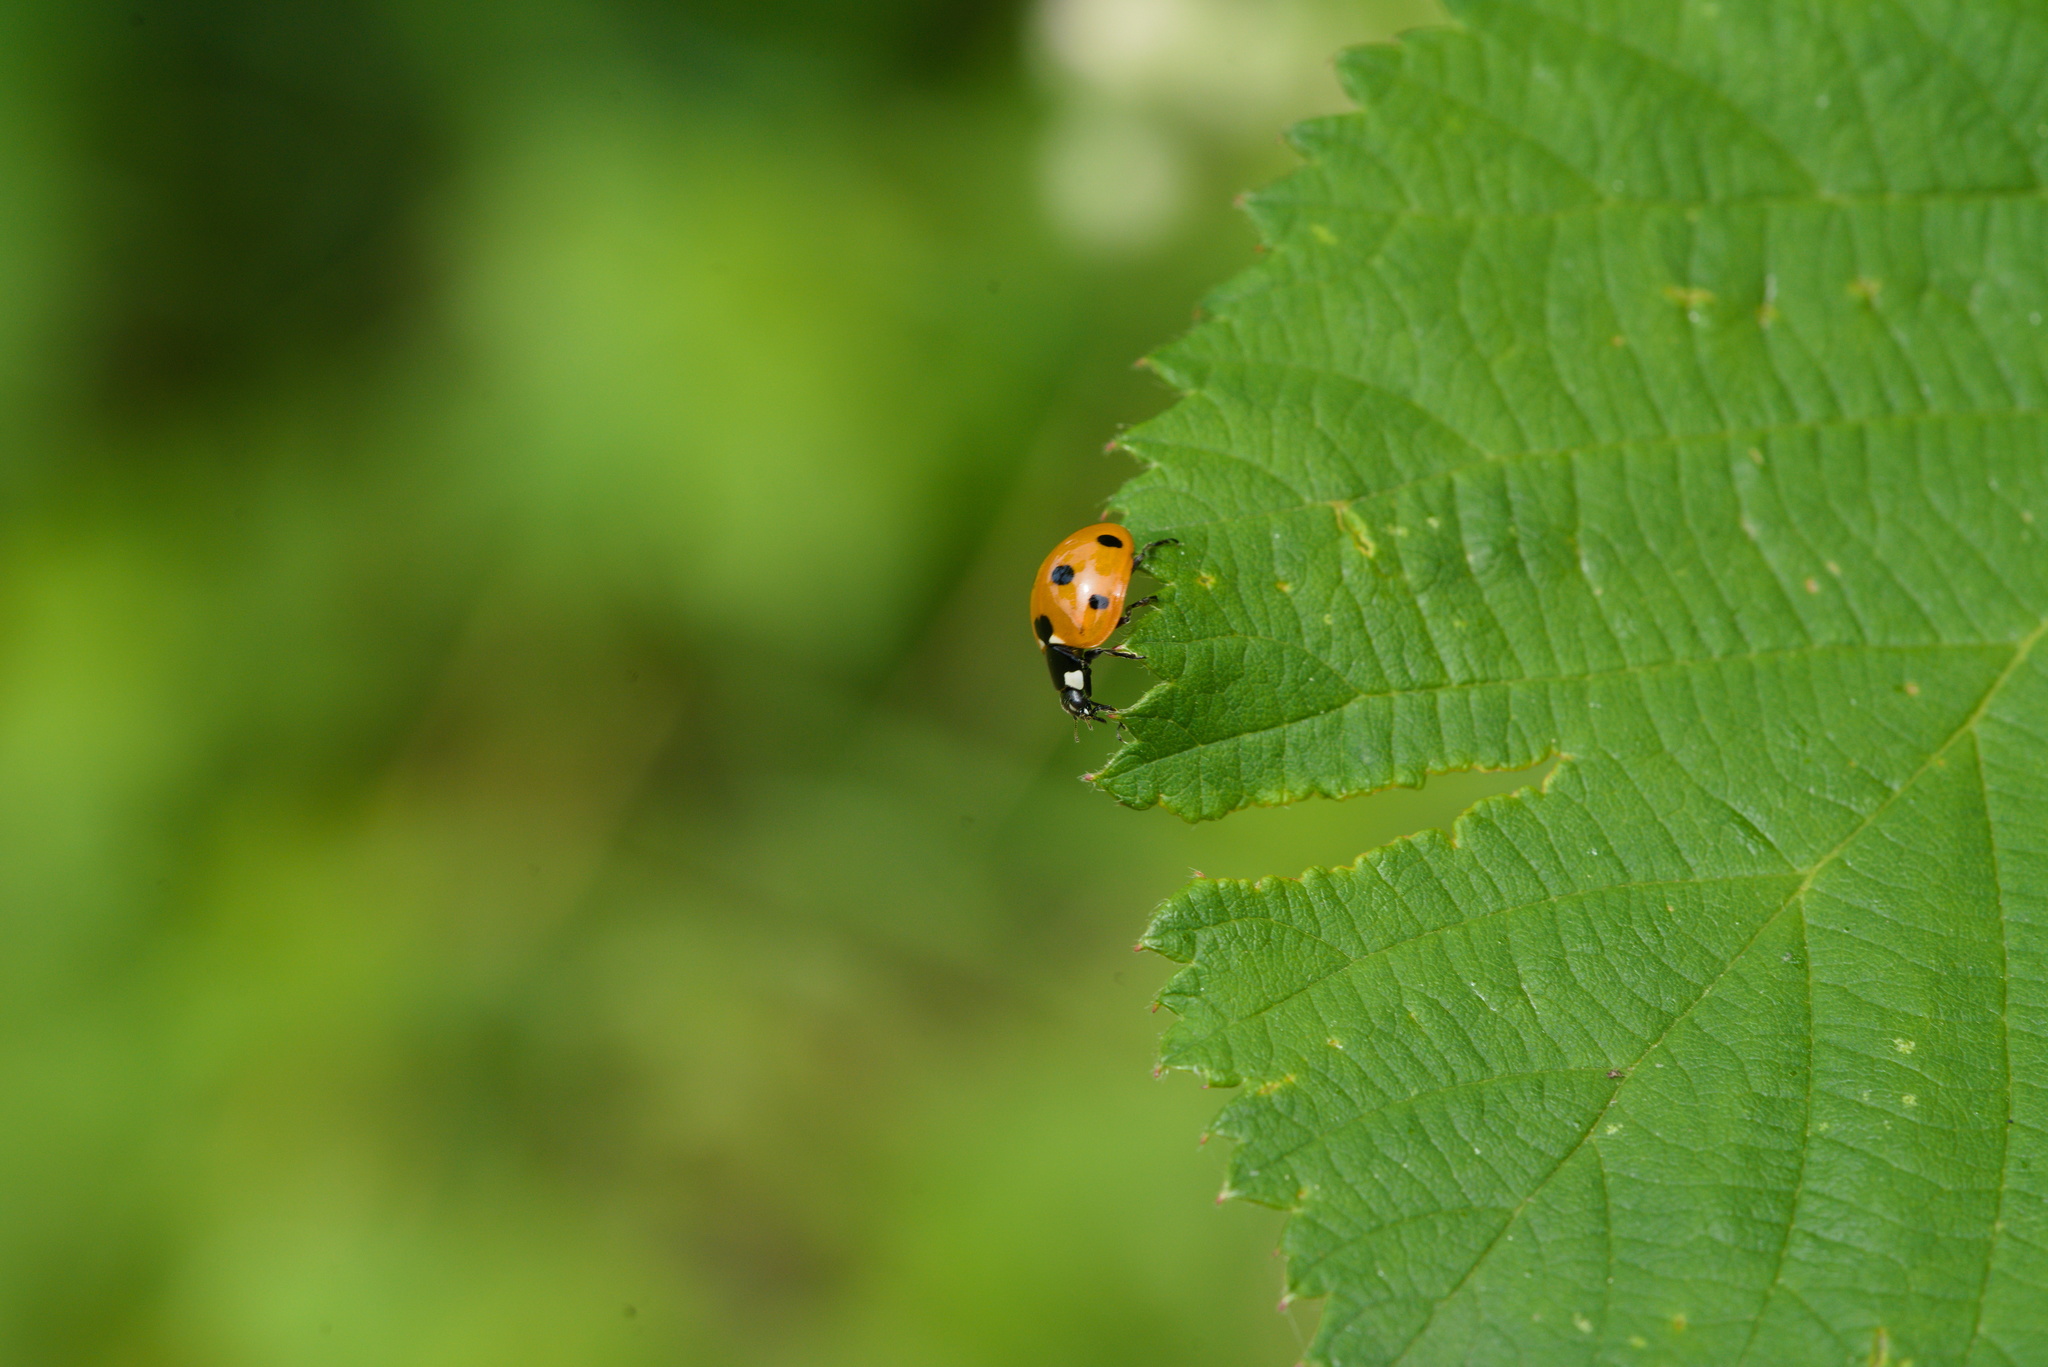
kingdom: Animalia
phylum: Arthropoda
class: Insecta
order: Coleoptera
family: Coccinellidae
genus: Coccinella
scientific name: Coccinella septempunctata
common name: Sevenspotted lady beetle
